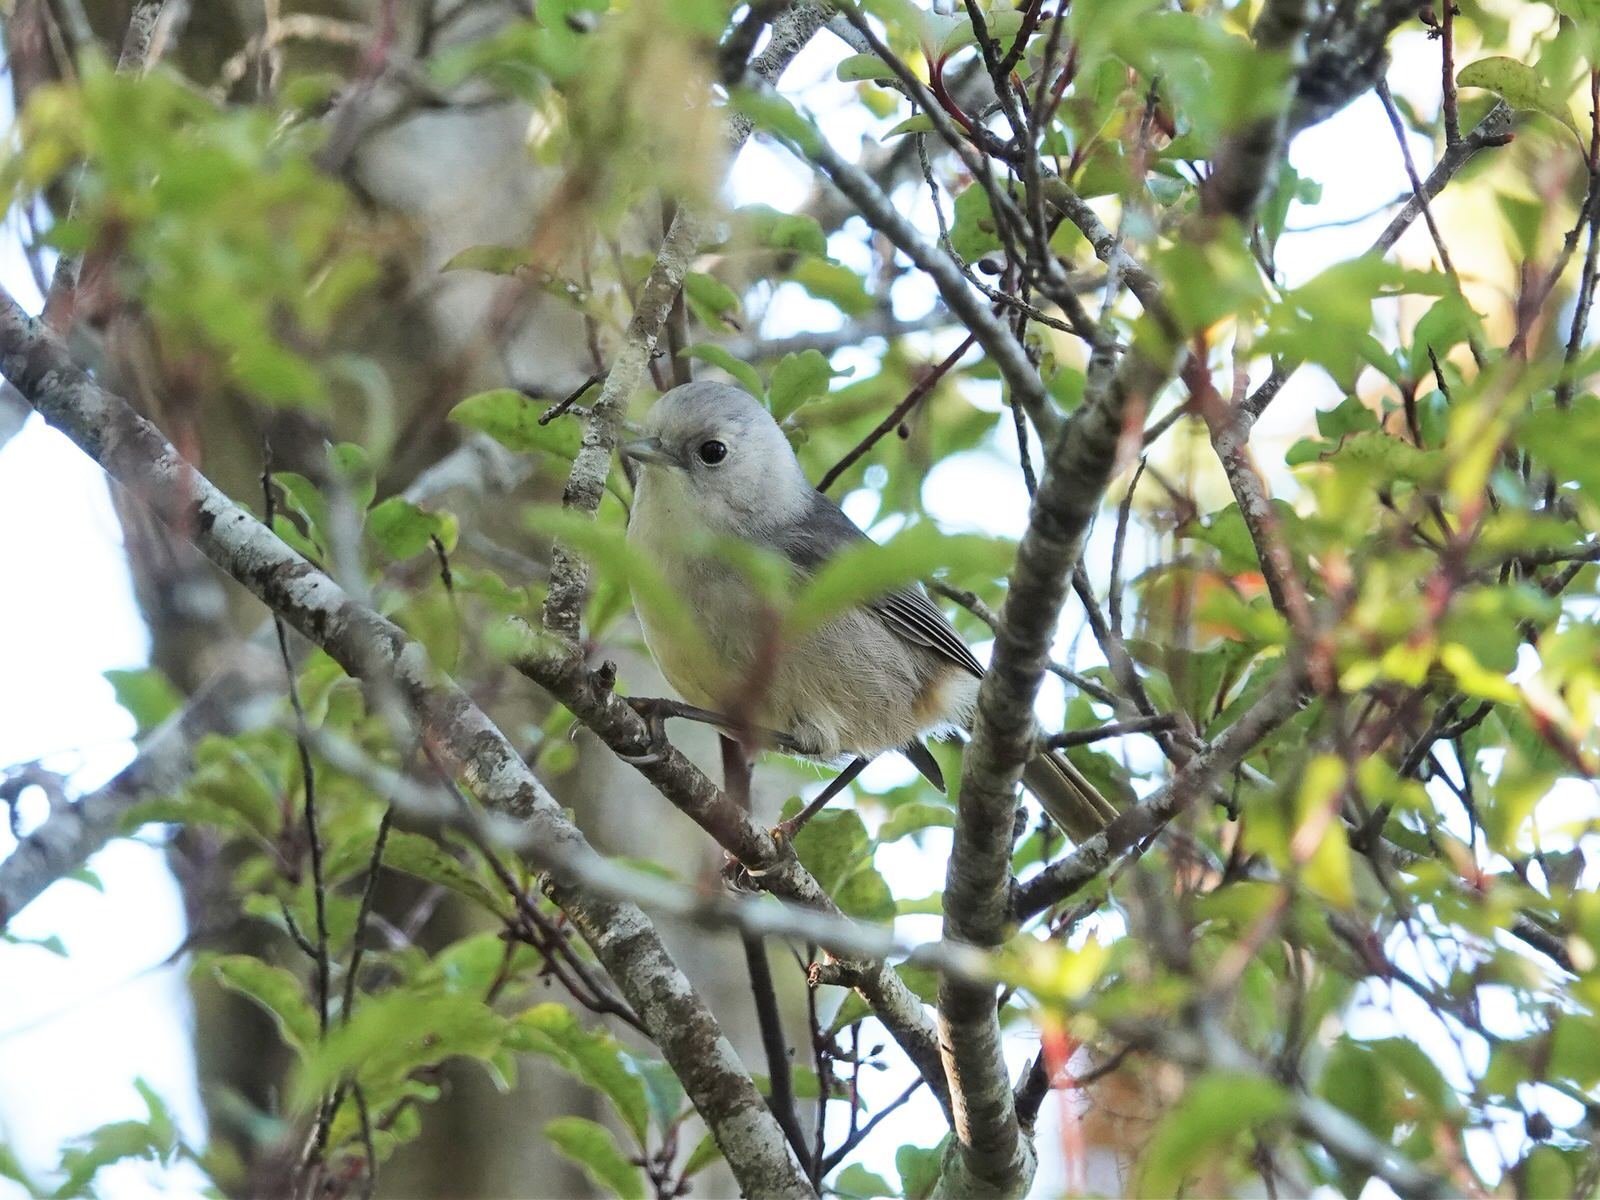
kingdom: Animalia
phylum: Chordata
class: Aves
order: Passeriformes
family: Acanthizidae
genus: Mohoua
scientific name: Mohoua albicilla
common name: Whitehead
